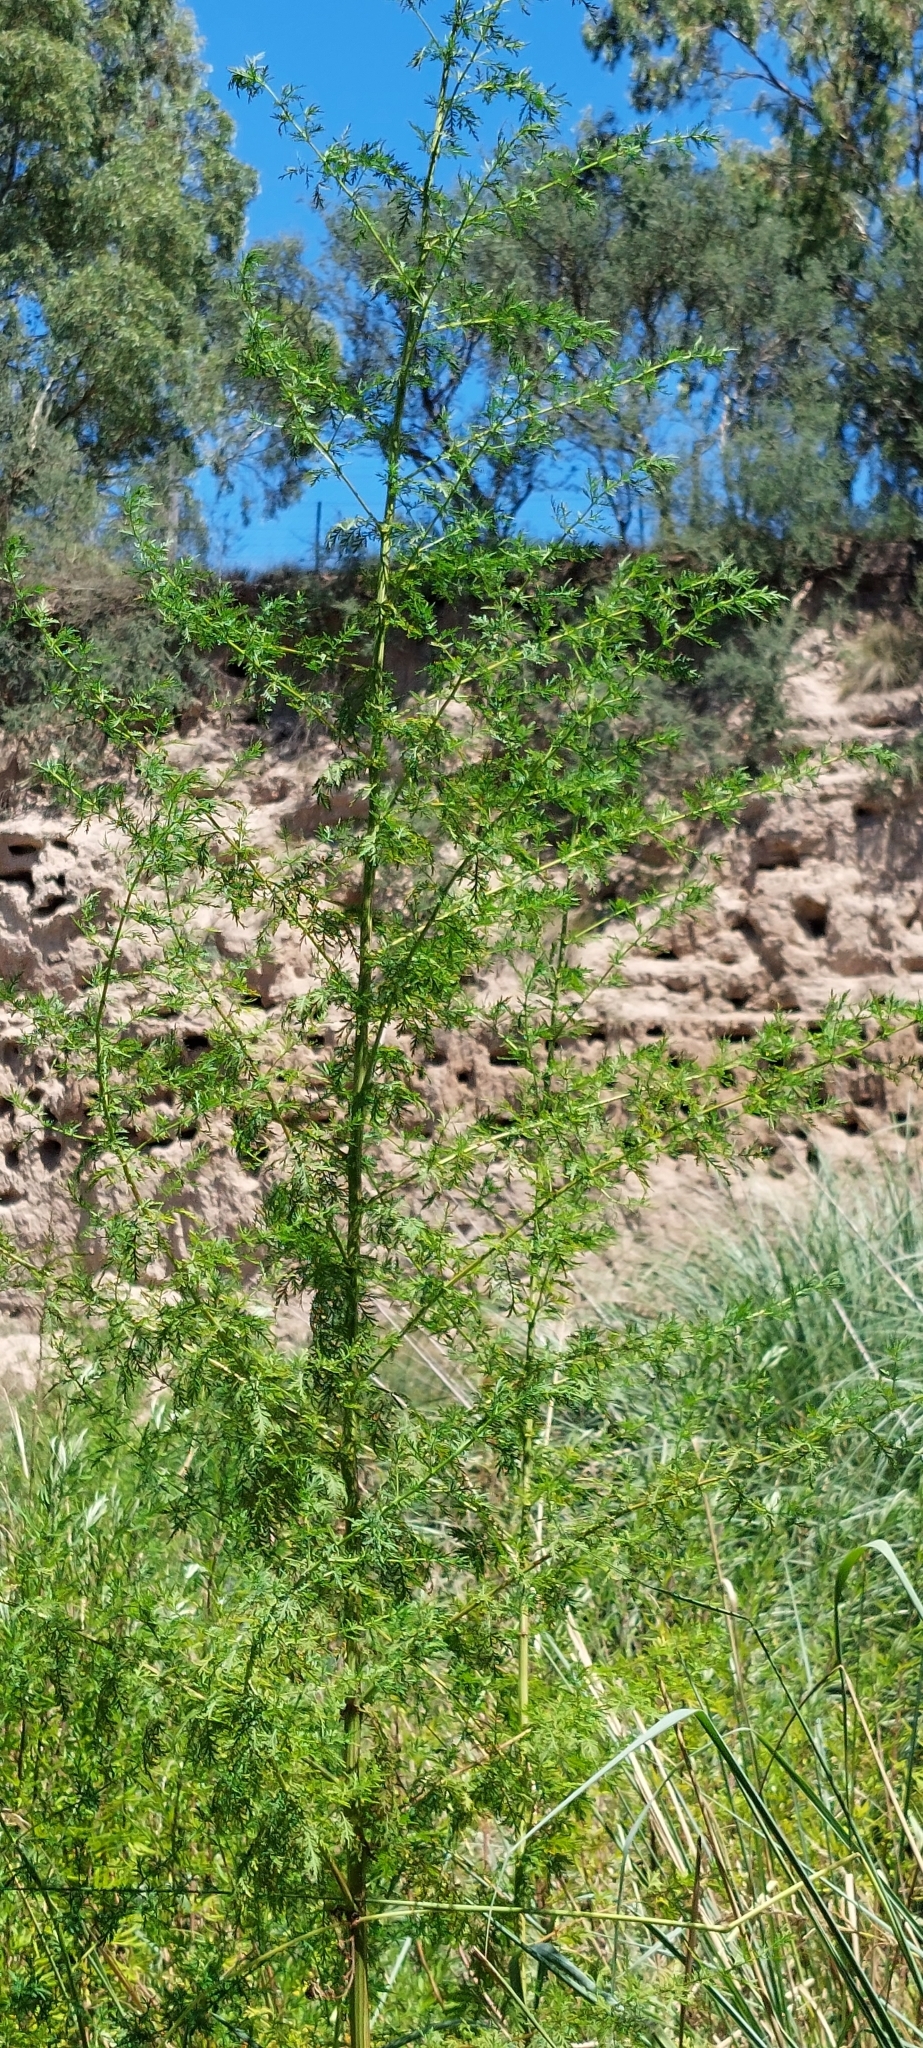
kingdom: Plantae
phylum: Tracheophyta
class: Magnoliopsida
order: Asterales
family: Asteraceae
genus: Artemisia
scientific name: Artemisia annua
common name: Sweet sagewort
